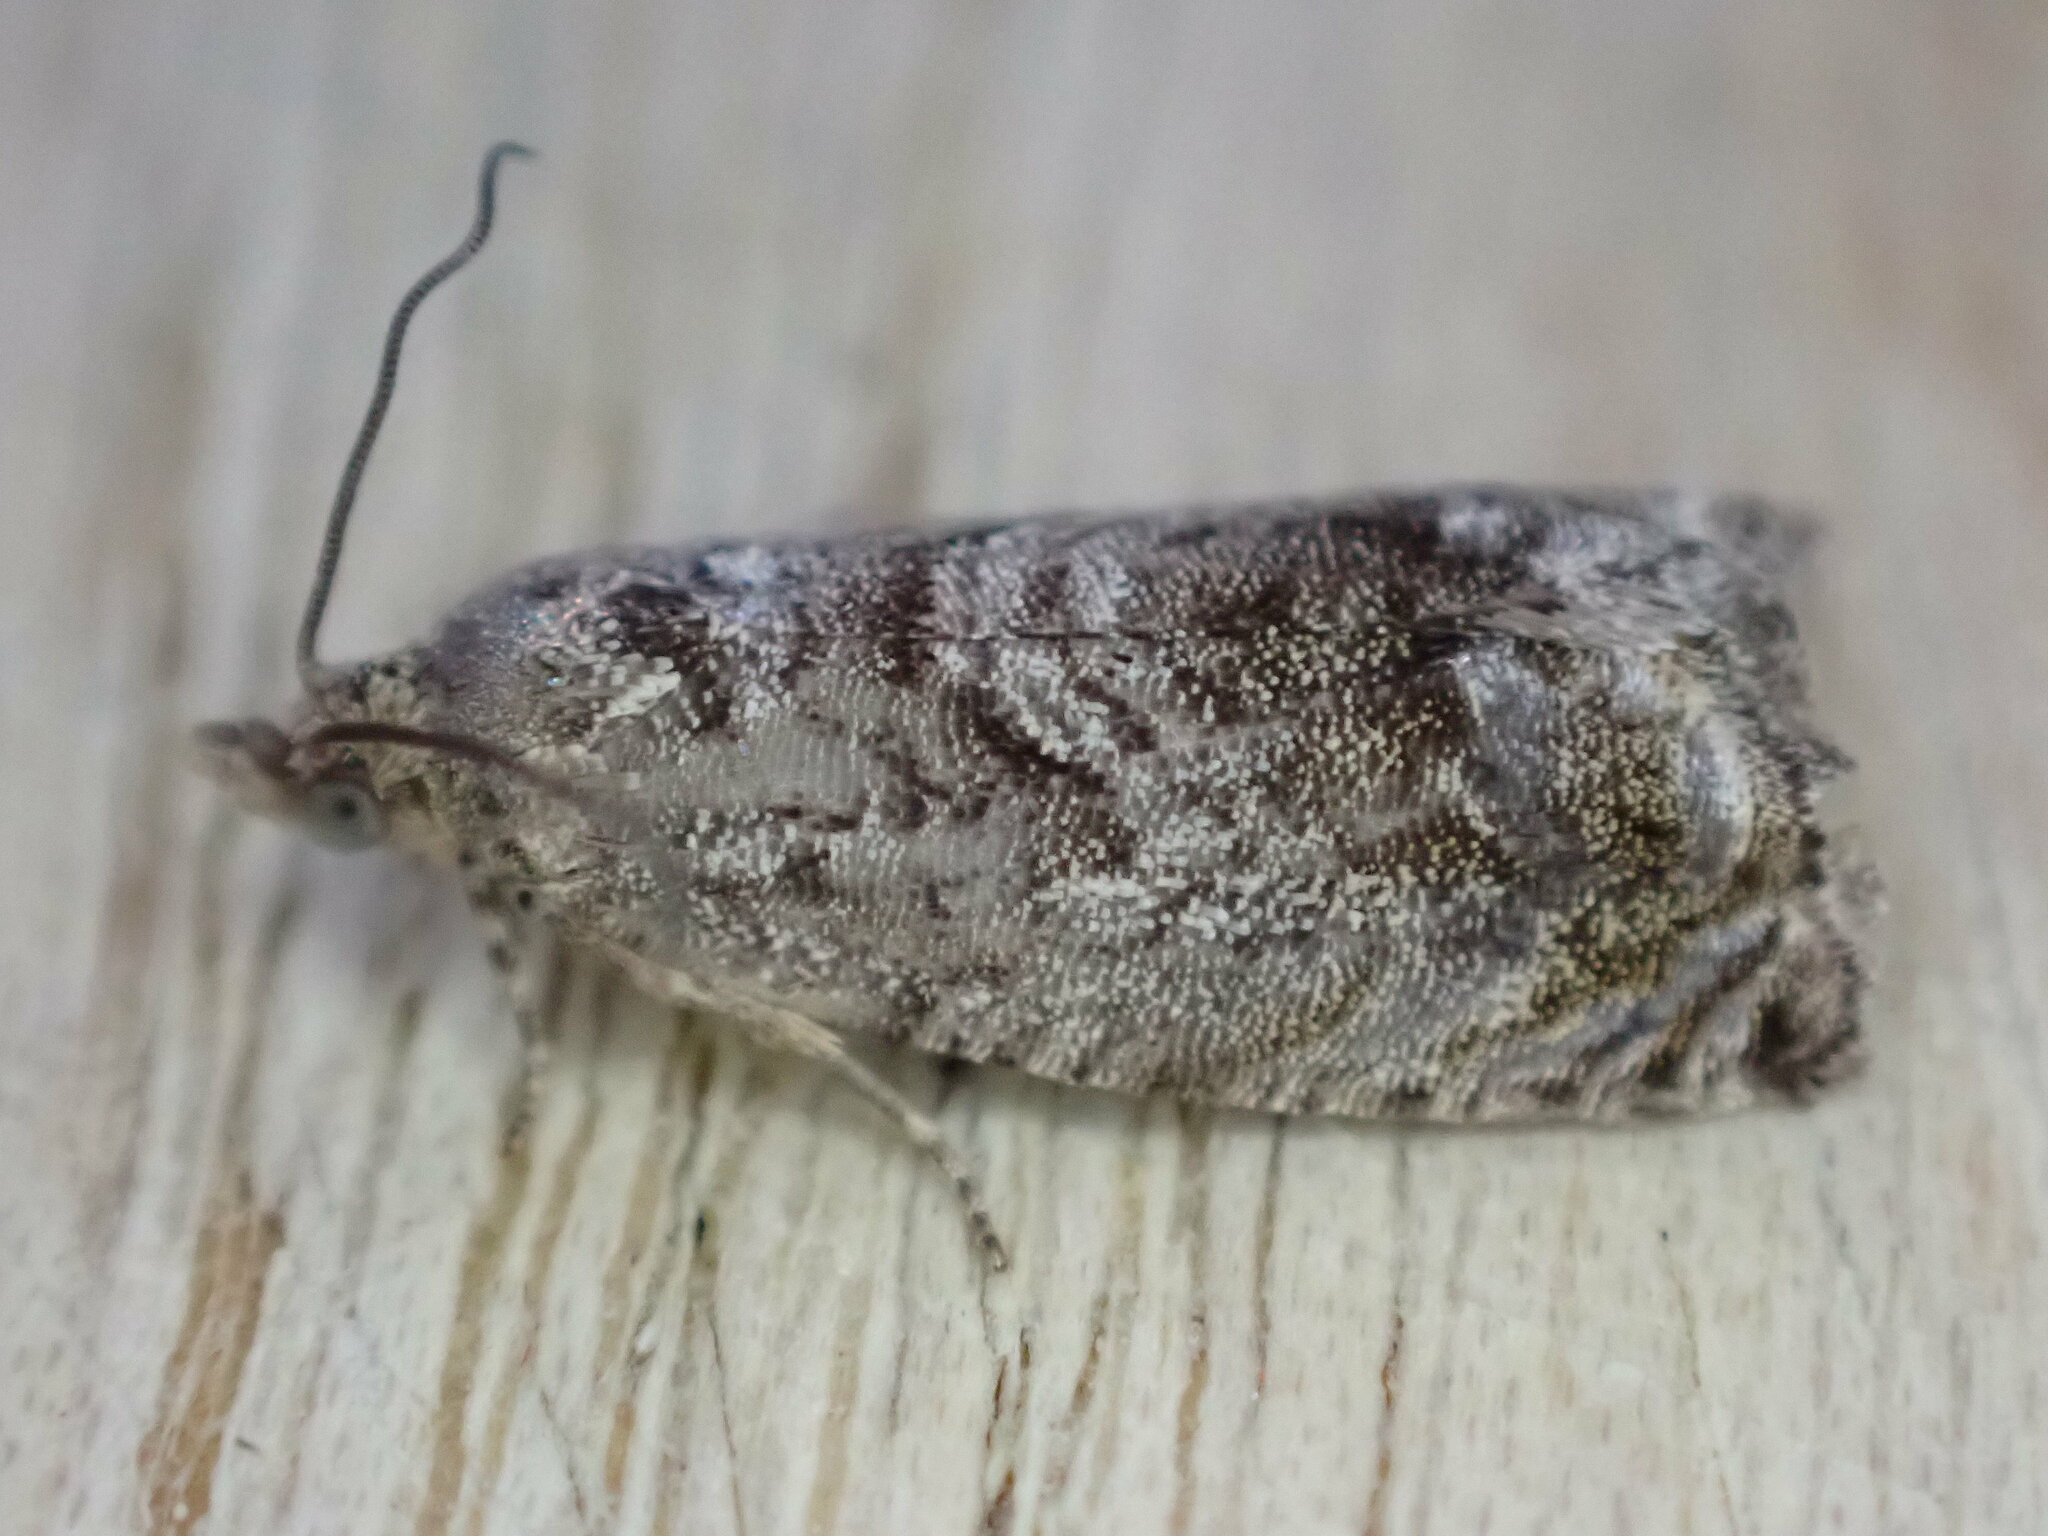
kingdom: Animalia
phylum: Arthropoda
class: Insecta
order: Lepidoptera
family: Tortricidae
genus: Cydia
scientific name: Cydia splendana
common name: De: kastanienwickler, eichenwickler es: oruga de la castaña fr: carpocapse des châtaignes it: cidia o tortrice tardiva delle castagne pt: bichado das castanhas gb: acorn moth, chestnut fruit tortrix
